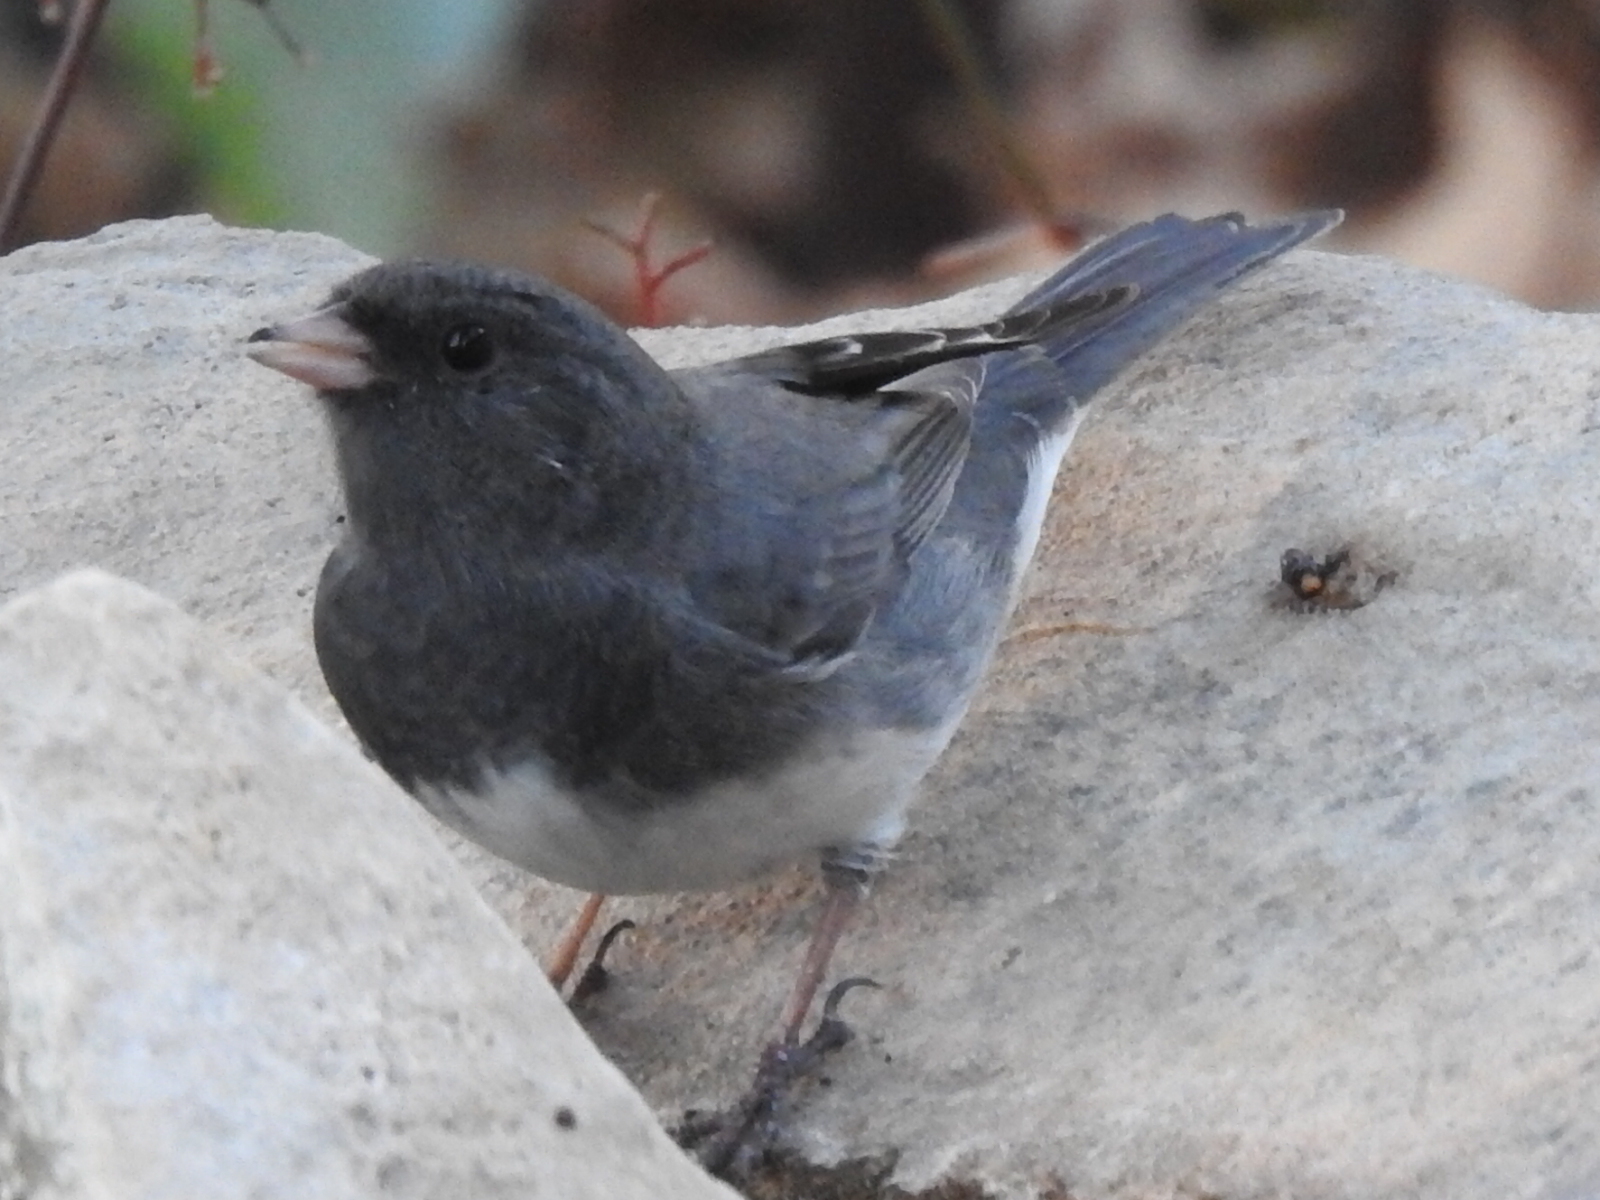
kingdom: Animalia
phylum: Chordata
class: Aves
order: Passeriformes
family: Passerellidae
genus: Junco
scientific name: Junco hyemalis
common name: Dark-eyed junco
